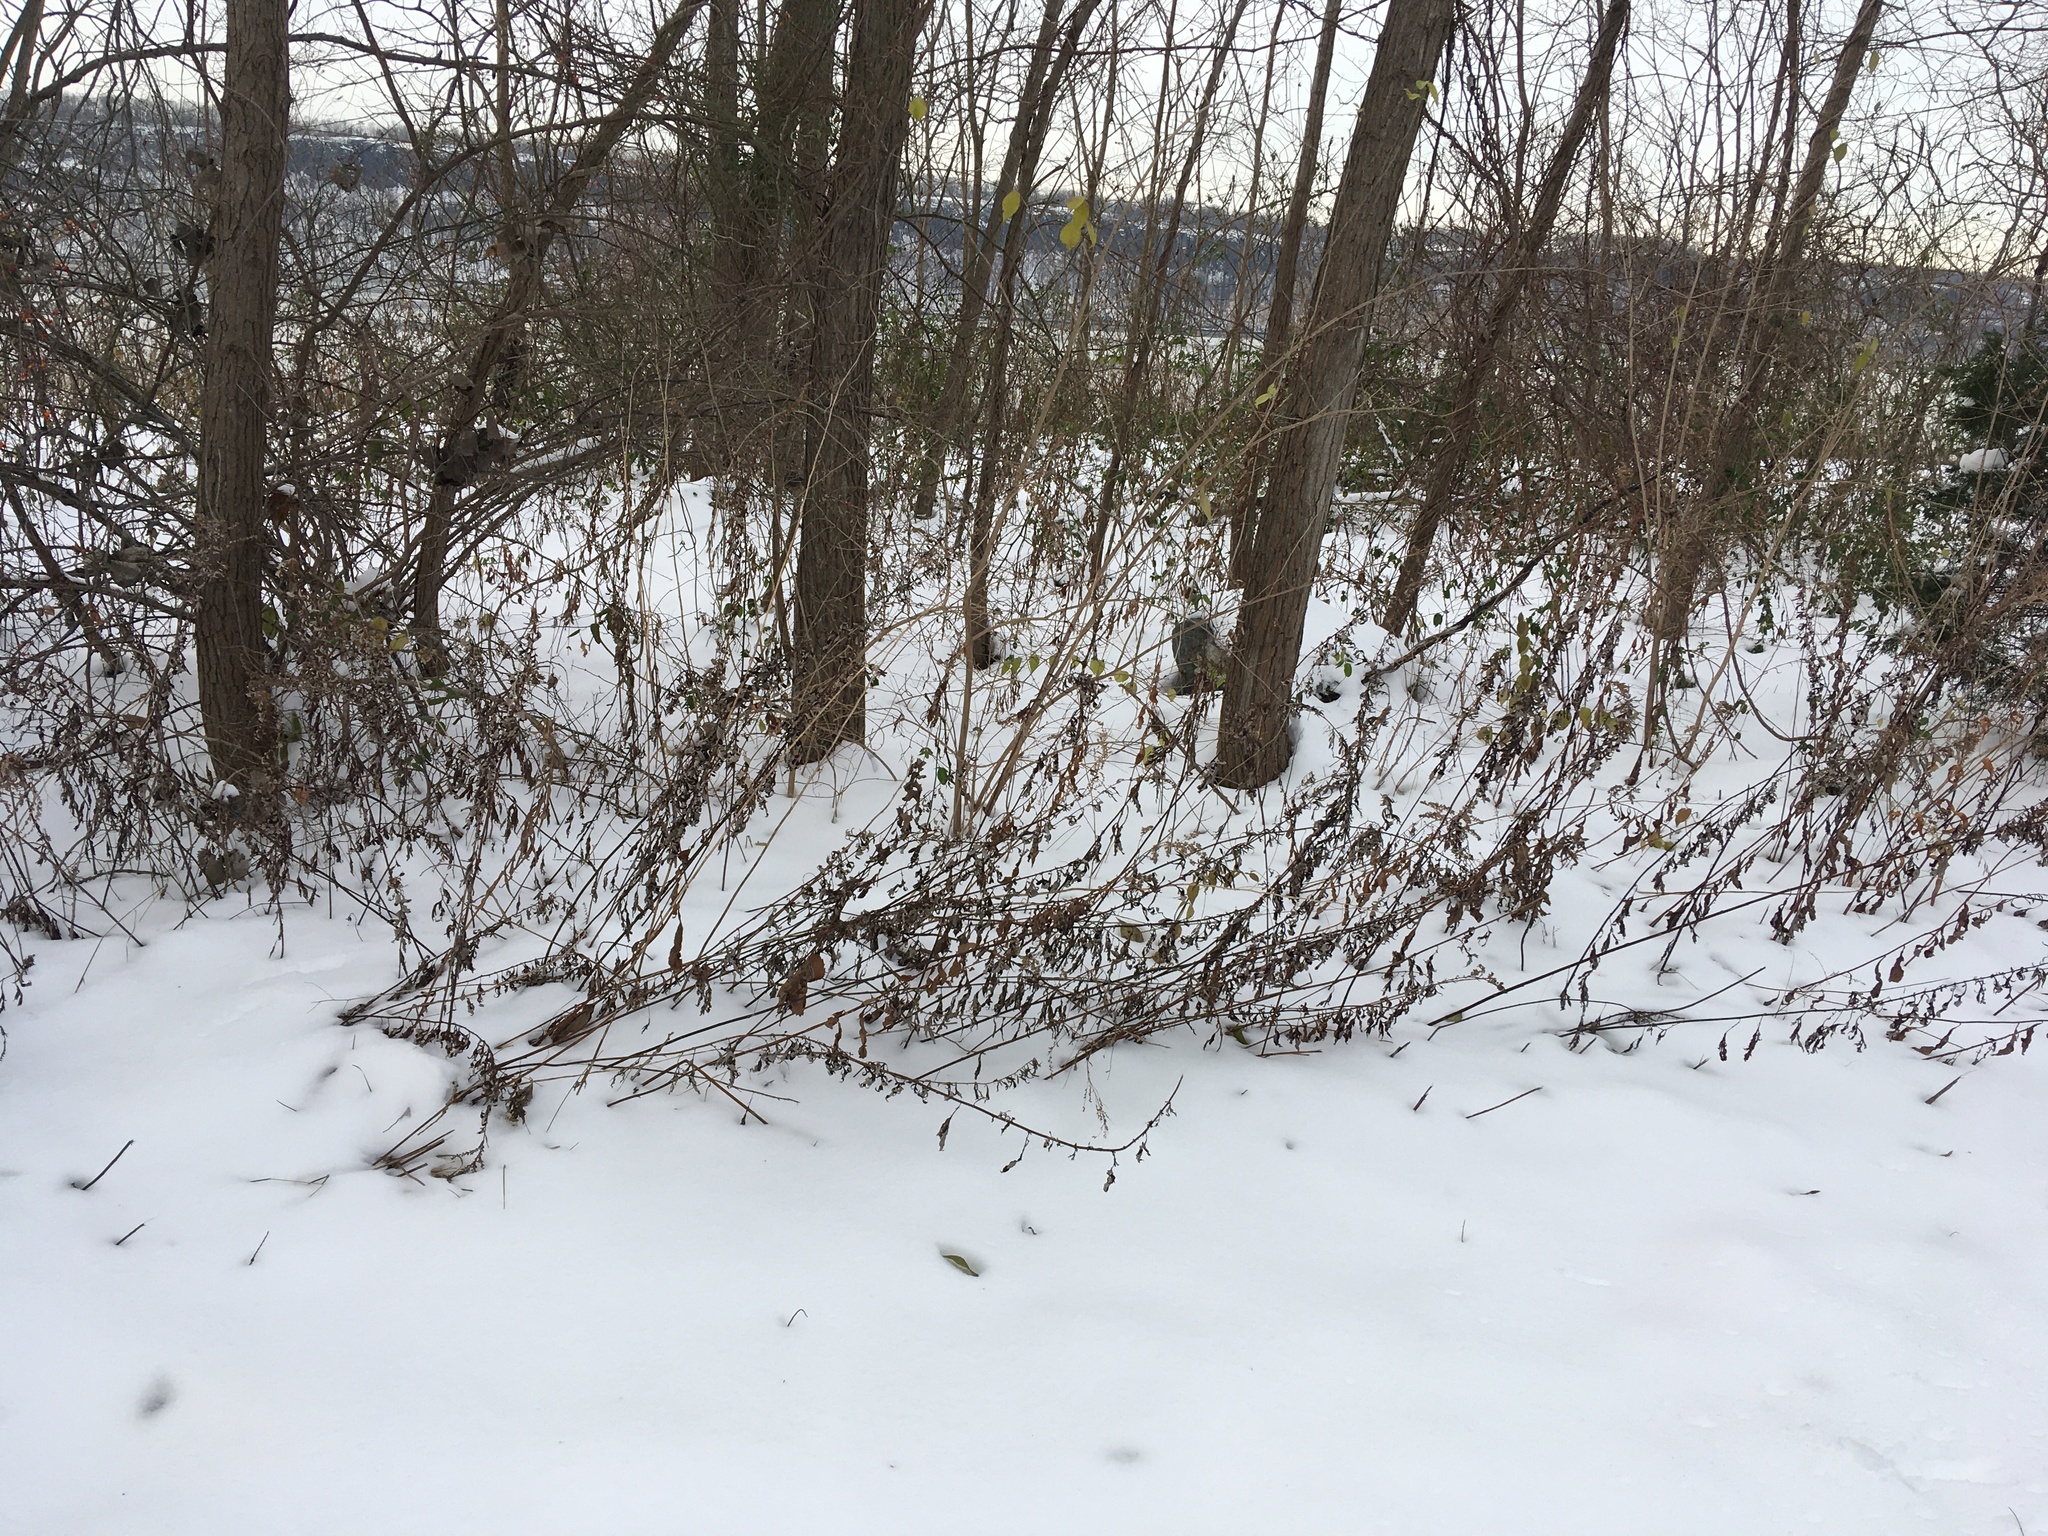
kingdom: Plantae
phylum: Tracheophyta
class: Magnoliopsida
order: Asterales
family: Asteraceae
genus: Artemisia
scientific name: Artemisia vulgaris
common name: Mugwort
